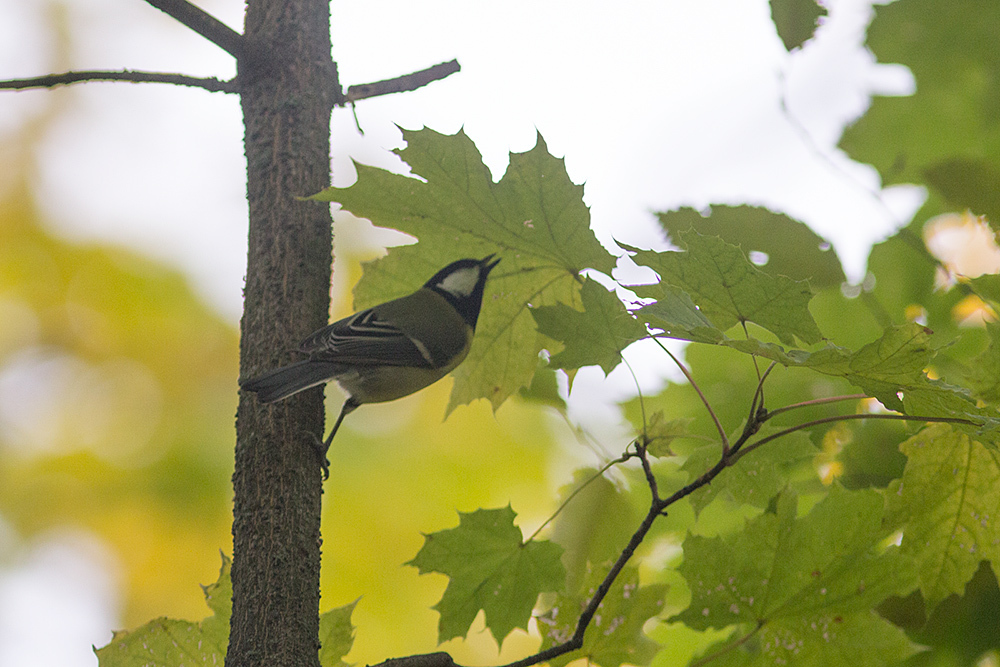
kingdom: Animalia
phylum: Chordata
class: Aves
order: Passeriformes
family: Paridae
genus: Parus
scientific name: Parus major
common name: Great tit
